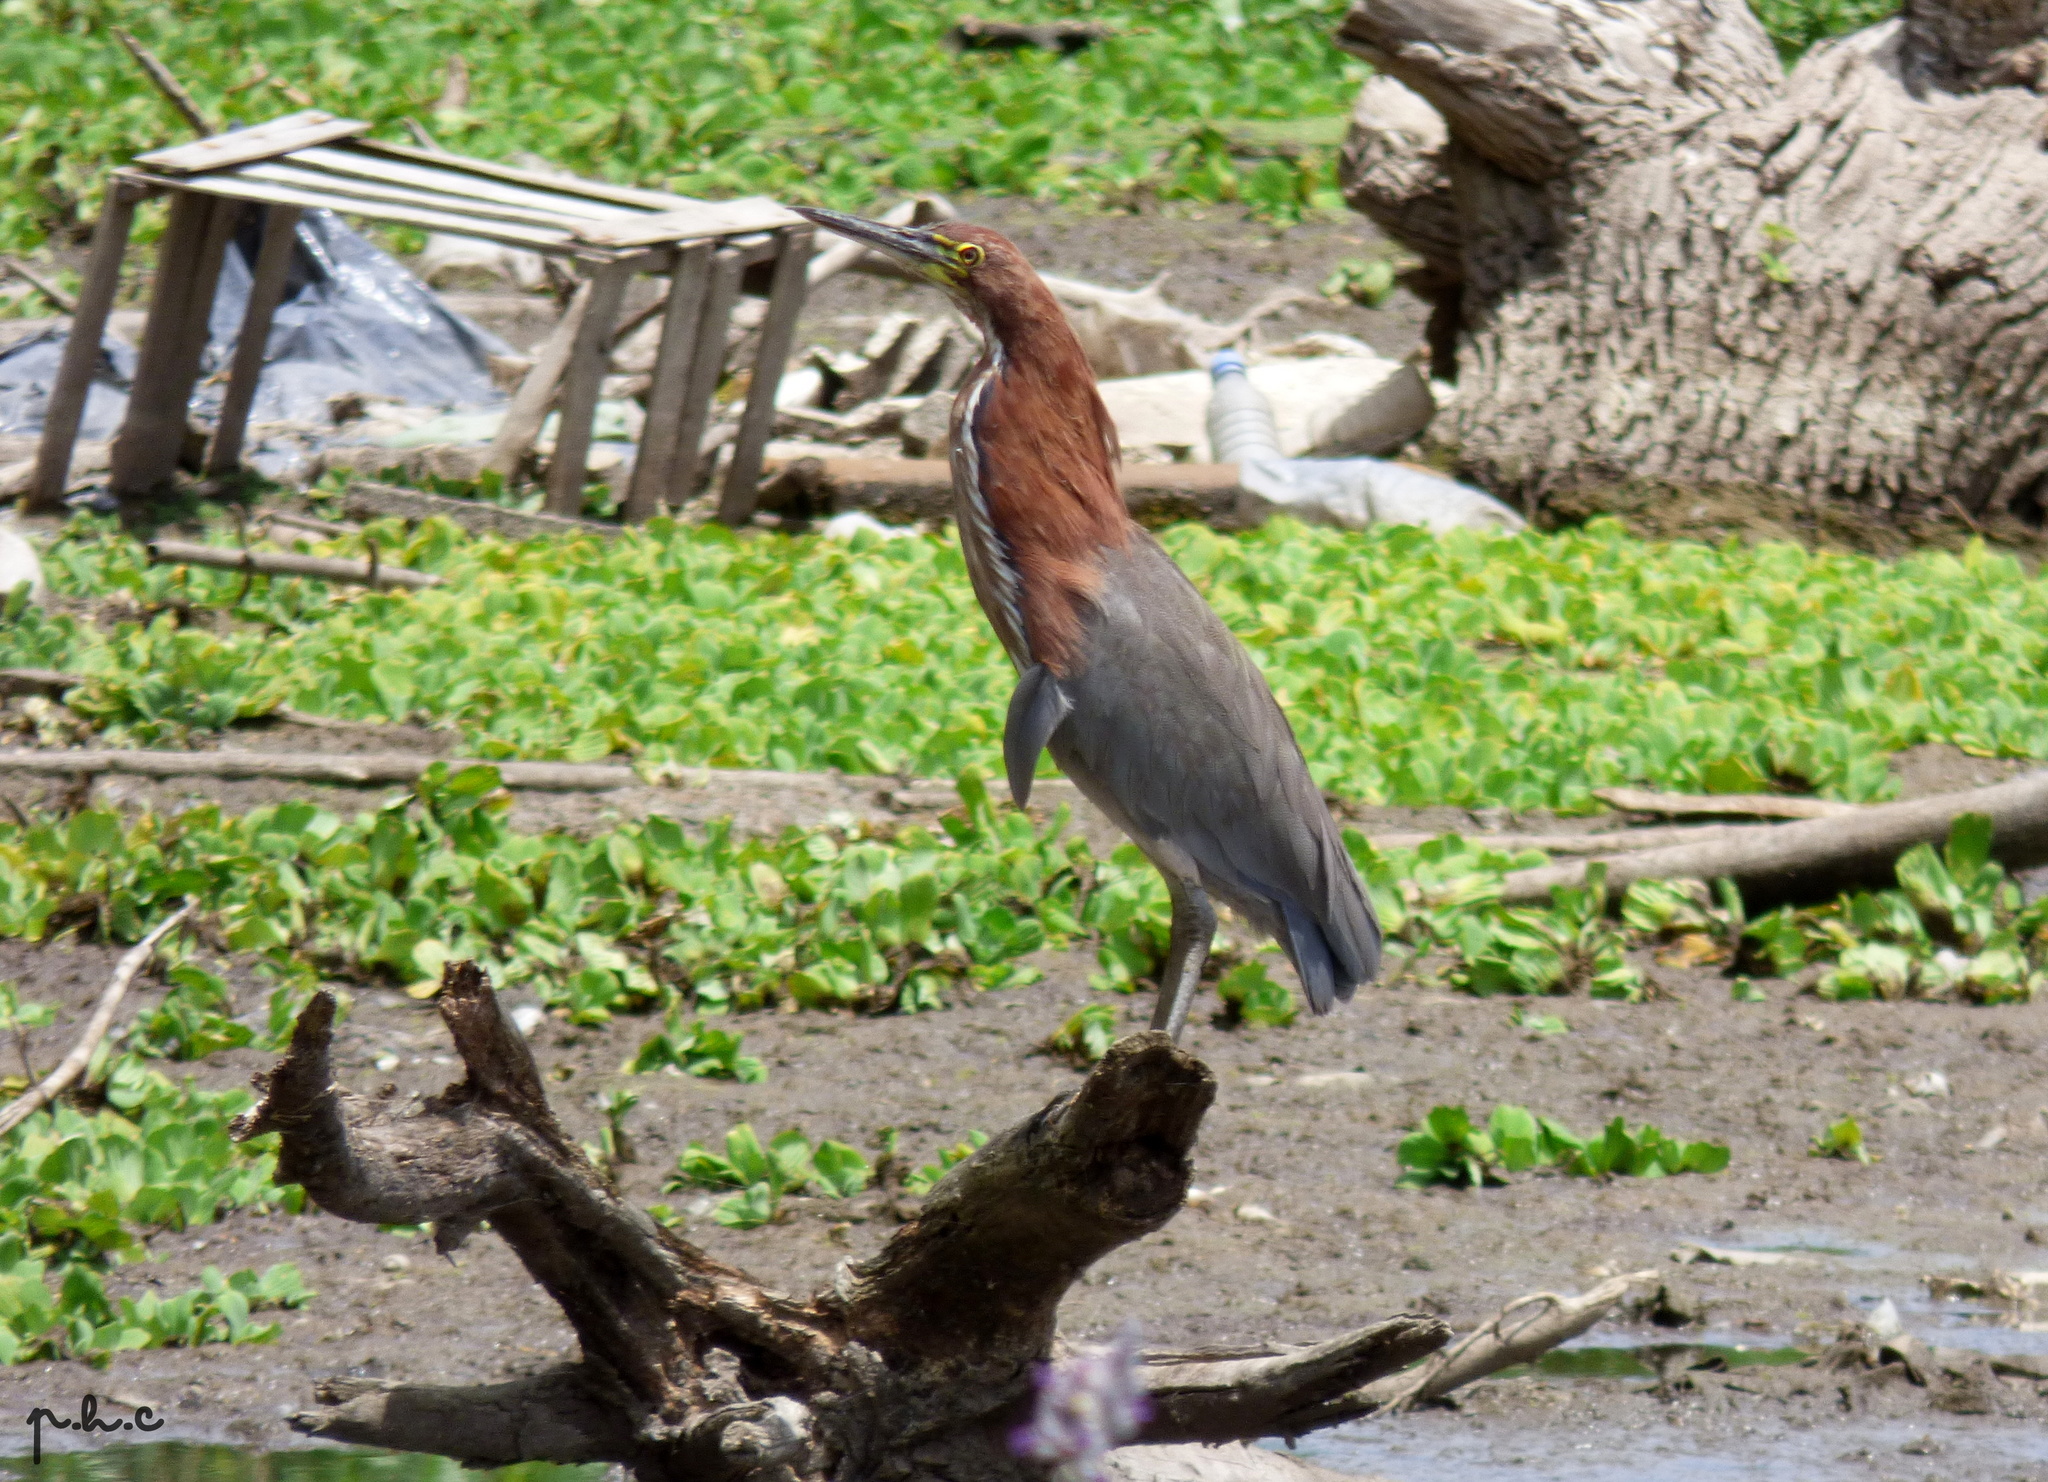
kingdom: Animalia
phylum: Chordata
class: Aves
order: Pelecaniformes
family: Ardeidae
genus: Tigrisoma
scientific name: Tigrisoma lineatum
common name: Rufescent tiger-heron
